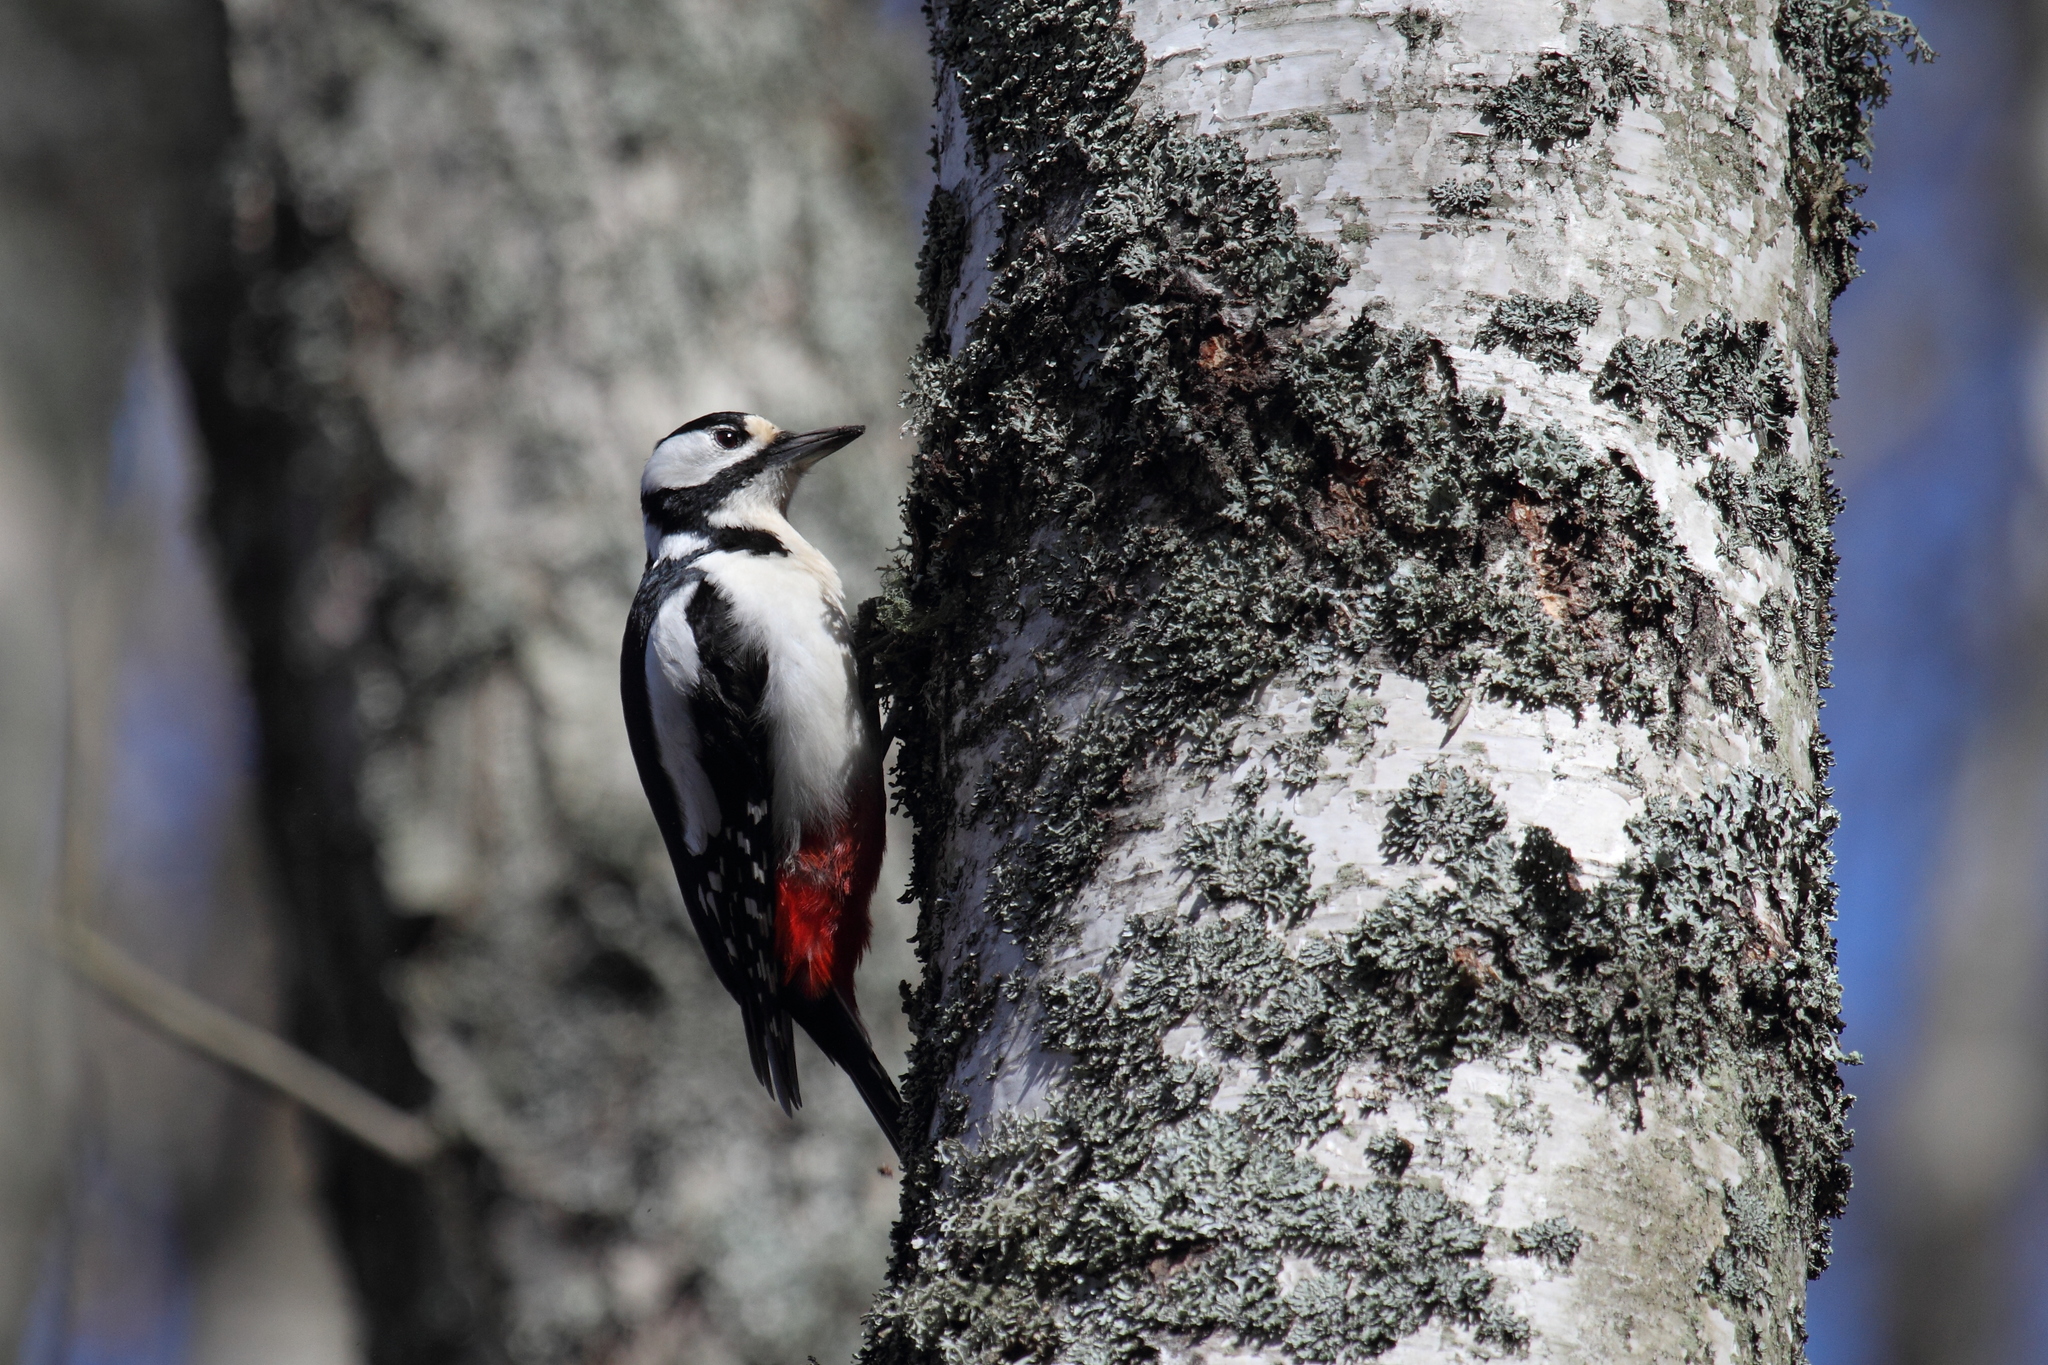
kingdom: Animalia
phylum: Chordata
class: Aves
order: Piciformes
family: Picidae
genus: Dendrocopos
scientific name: Dendrocopos major
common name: Great spotted woodpecker
